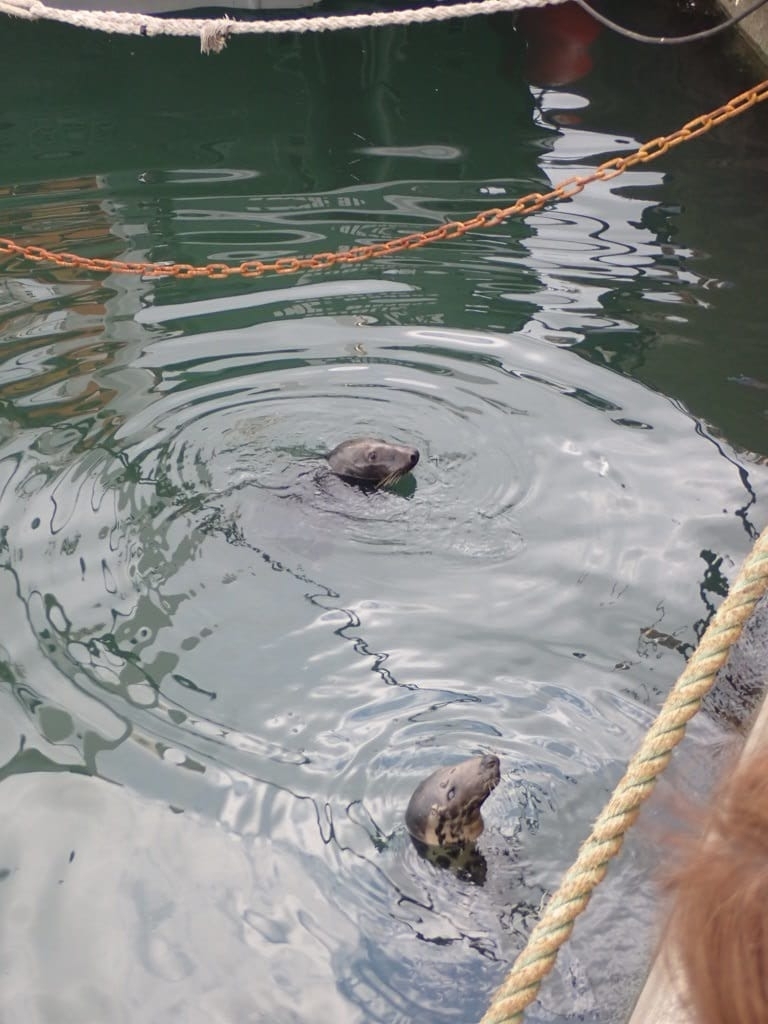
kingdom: Animalia
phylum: Chordata
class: Mammalia
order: Carnivora
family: Phocidae
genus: Halichoerus
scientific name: Halichoerus grypus
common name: Grey seal
